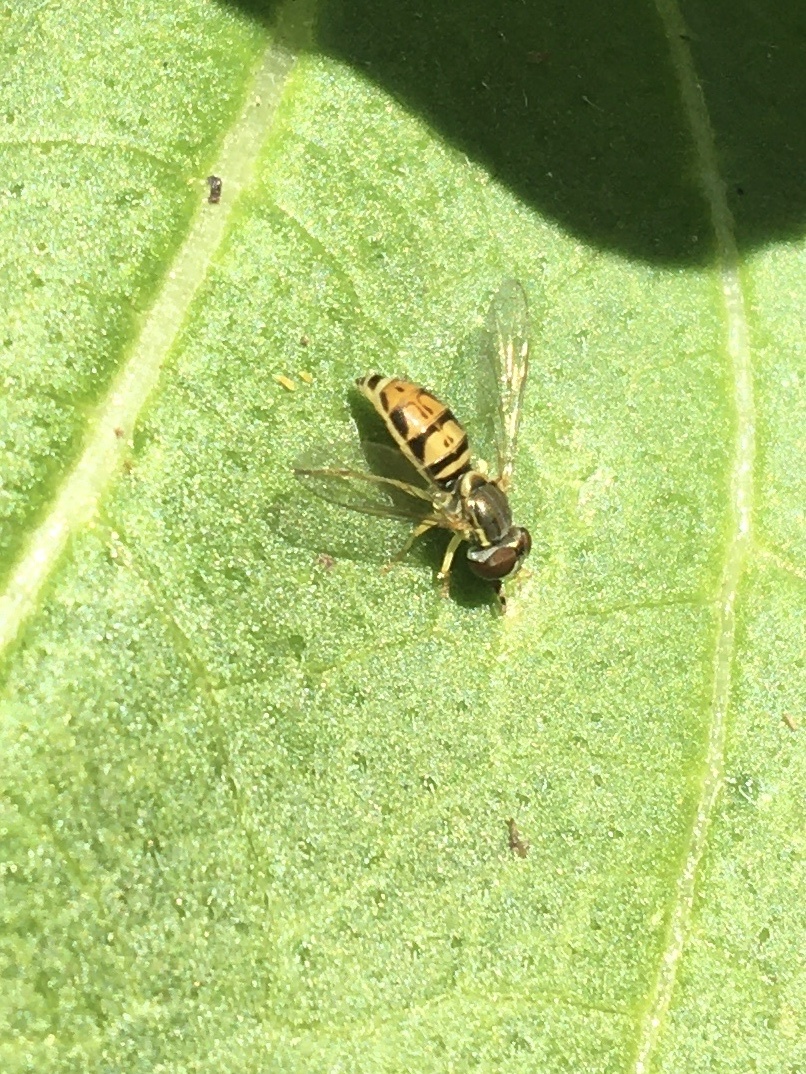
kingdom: Animalia
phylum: Arthropoda
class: Insecta
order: Diptera
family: Syrphidae
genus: Toxomerus
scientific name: Toxomerus marginatus
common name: Syrphid fly
